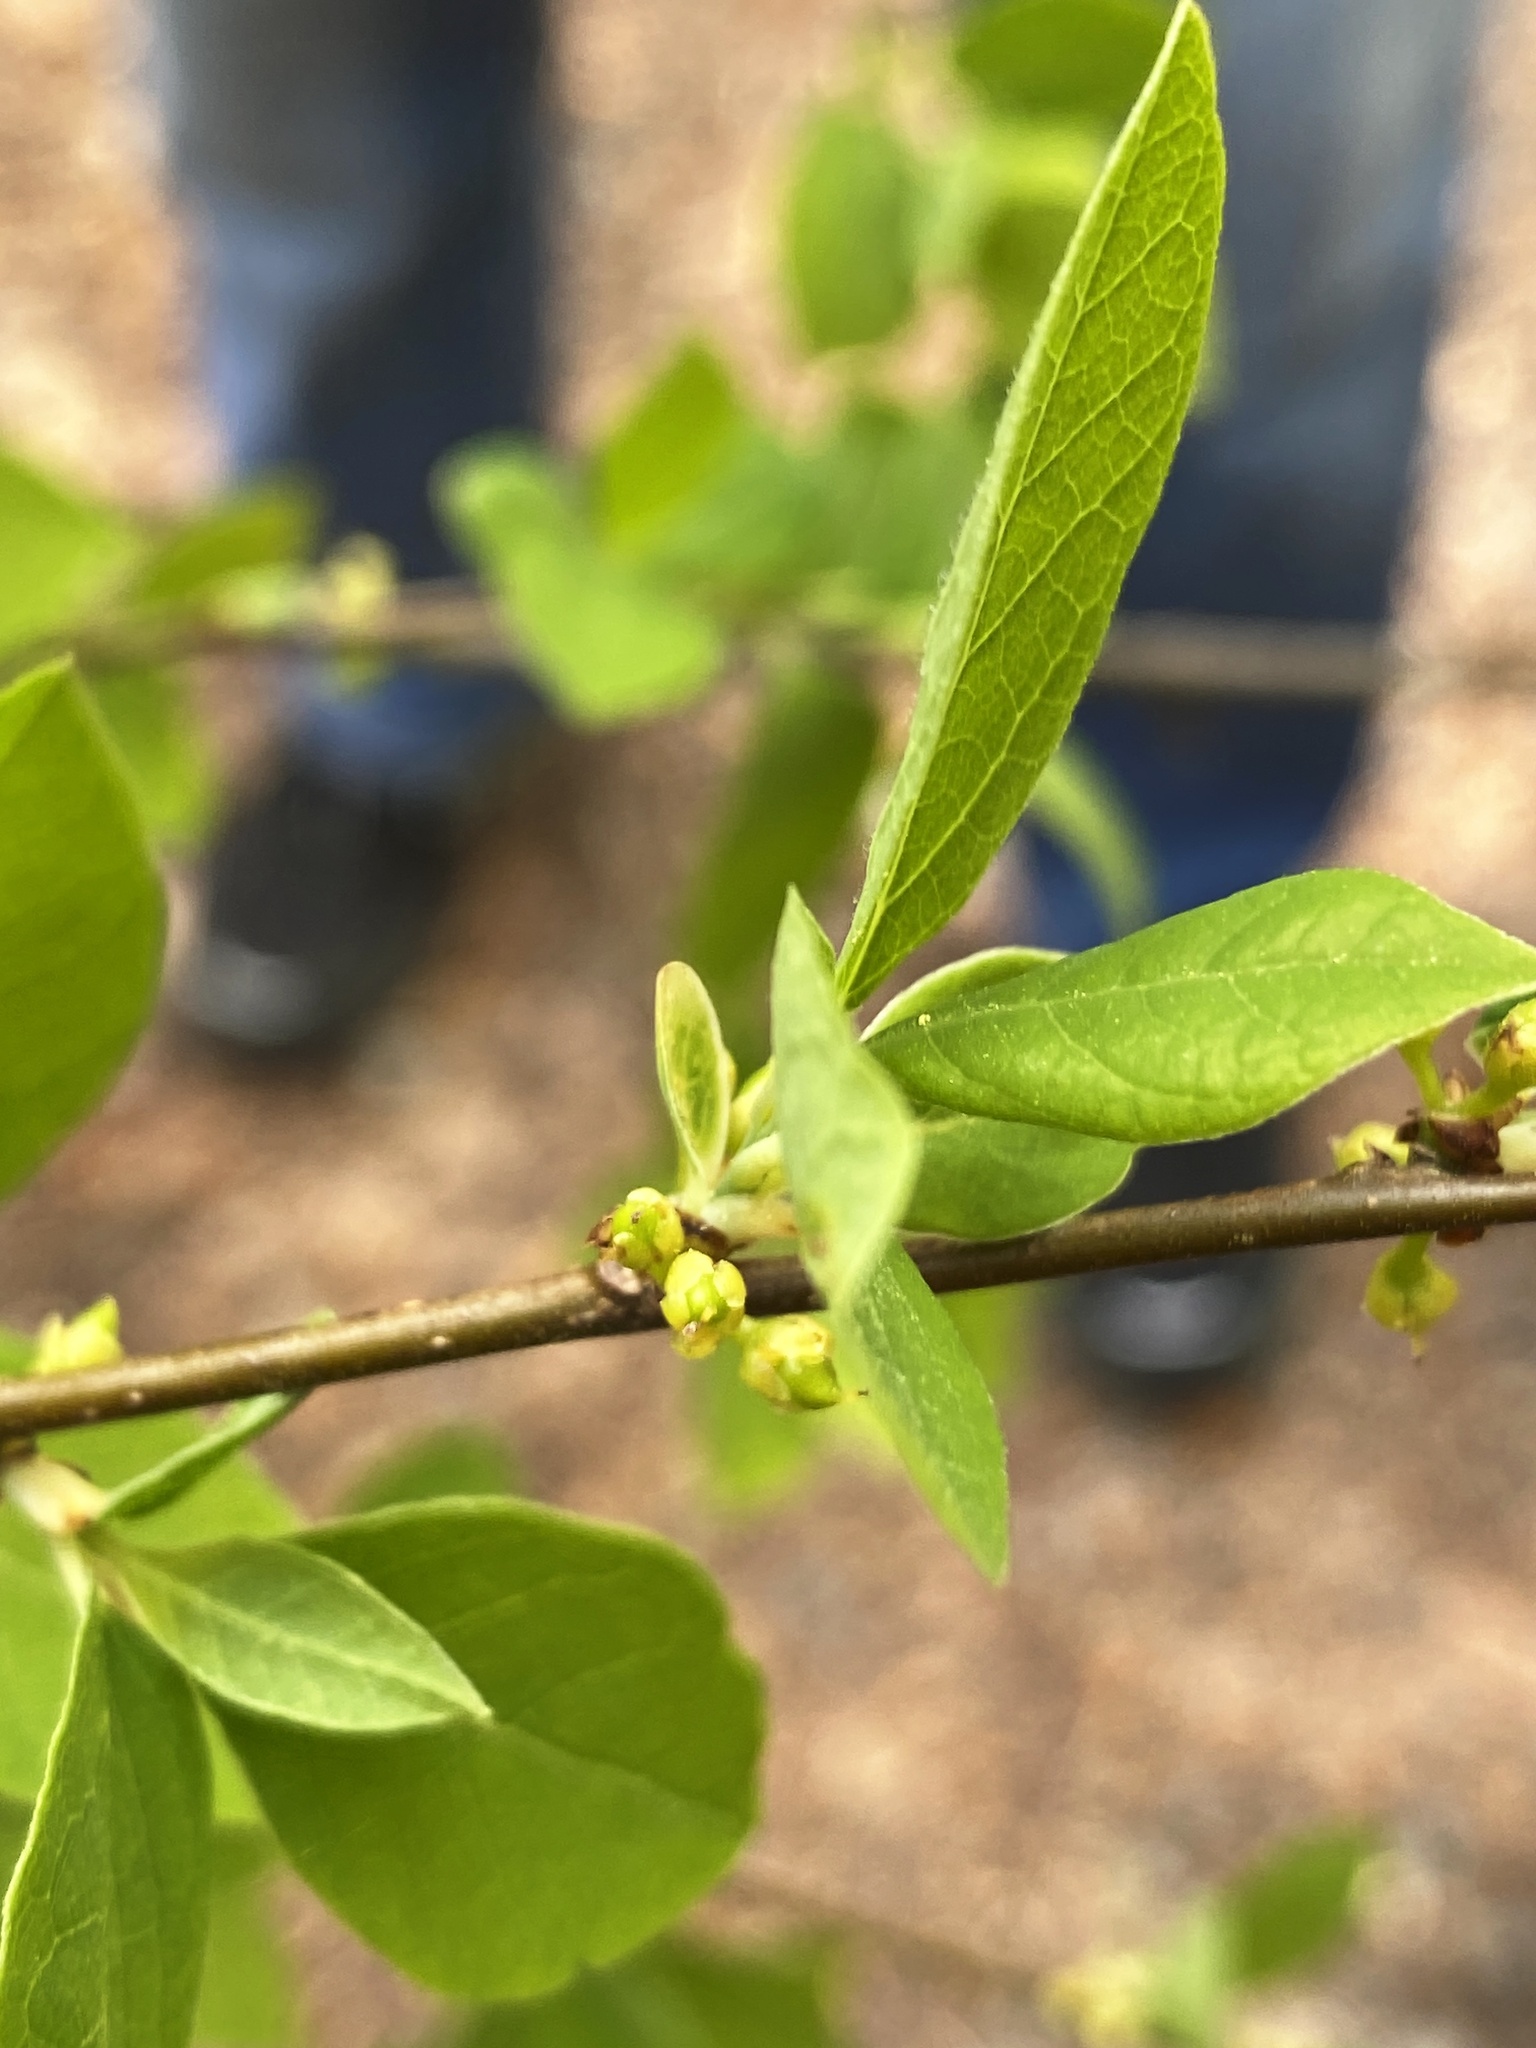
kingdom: Plantae
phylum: Tracheophyta
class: Magnoliopsida
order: Laurales
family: Lauraceae
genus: Lindera
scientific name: Lindera benzoin
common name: Spicebush
